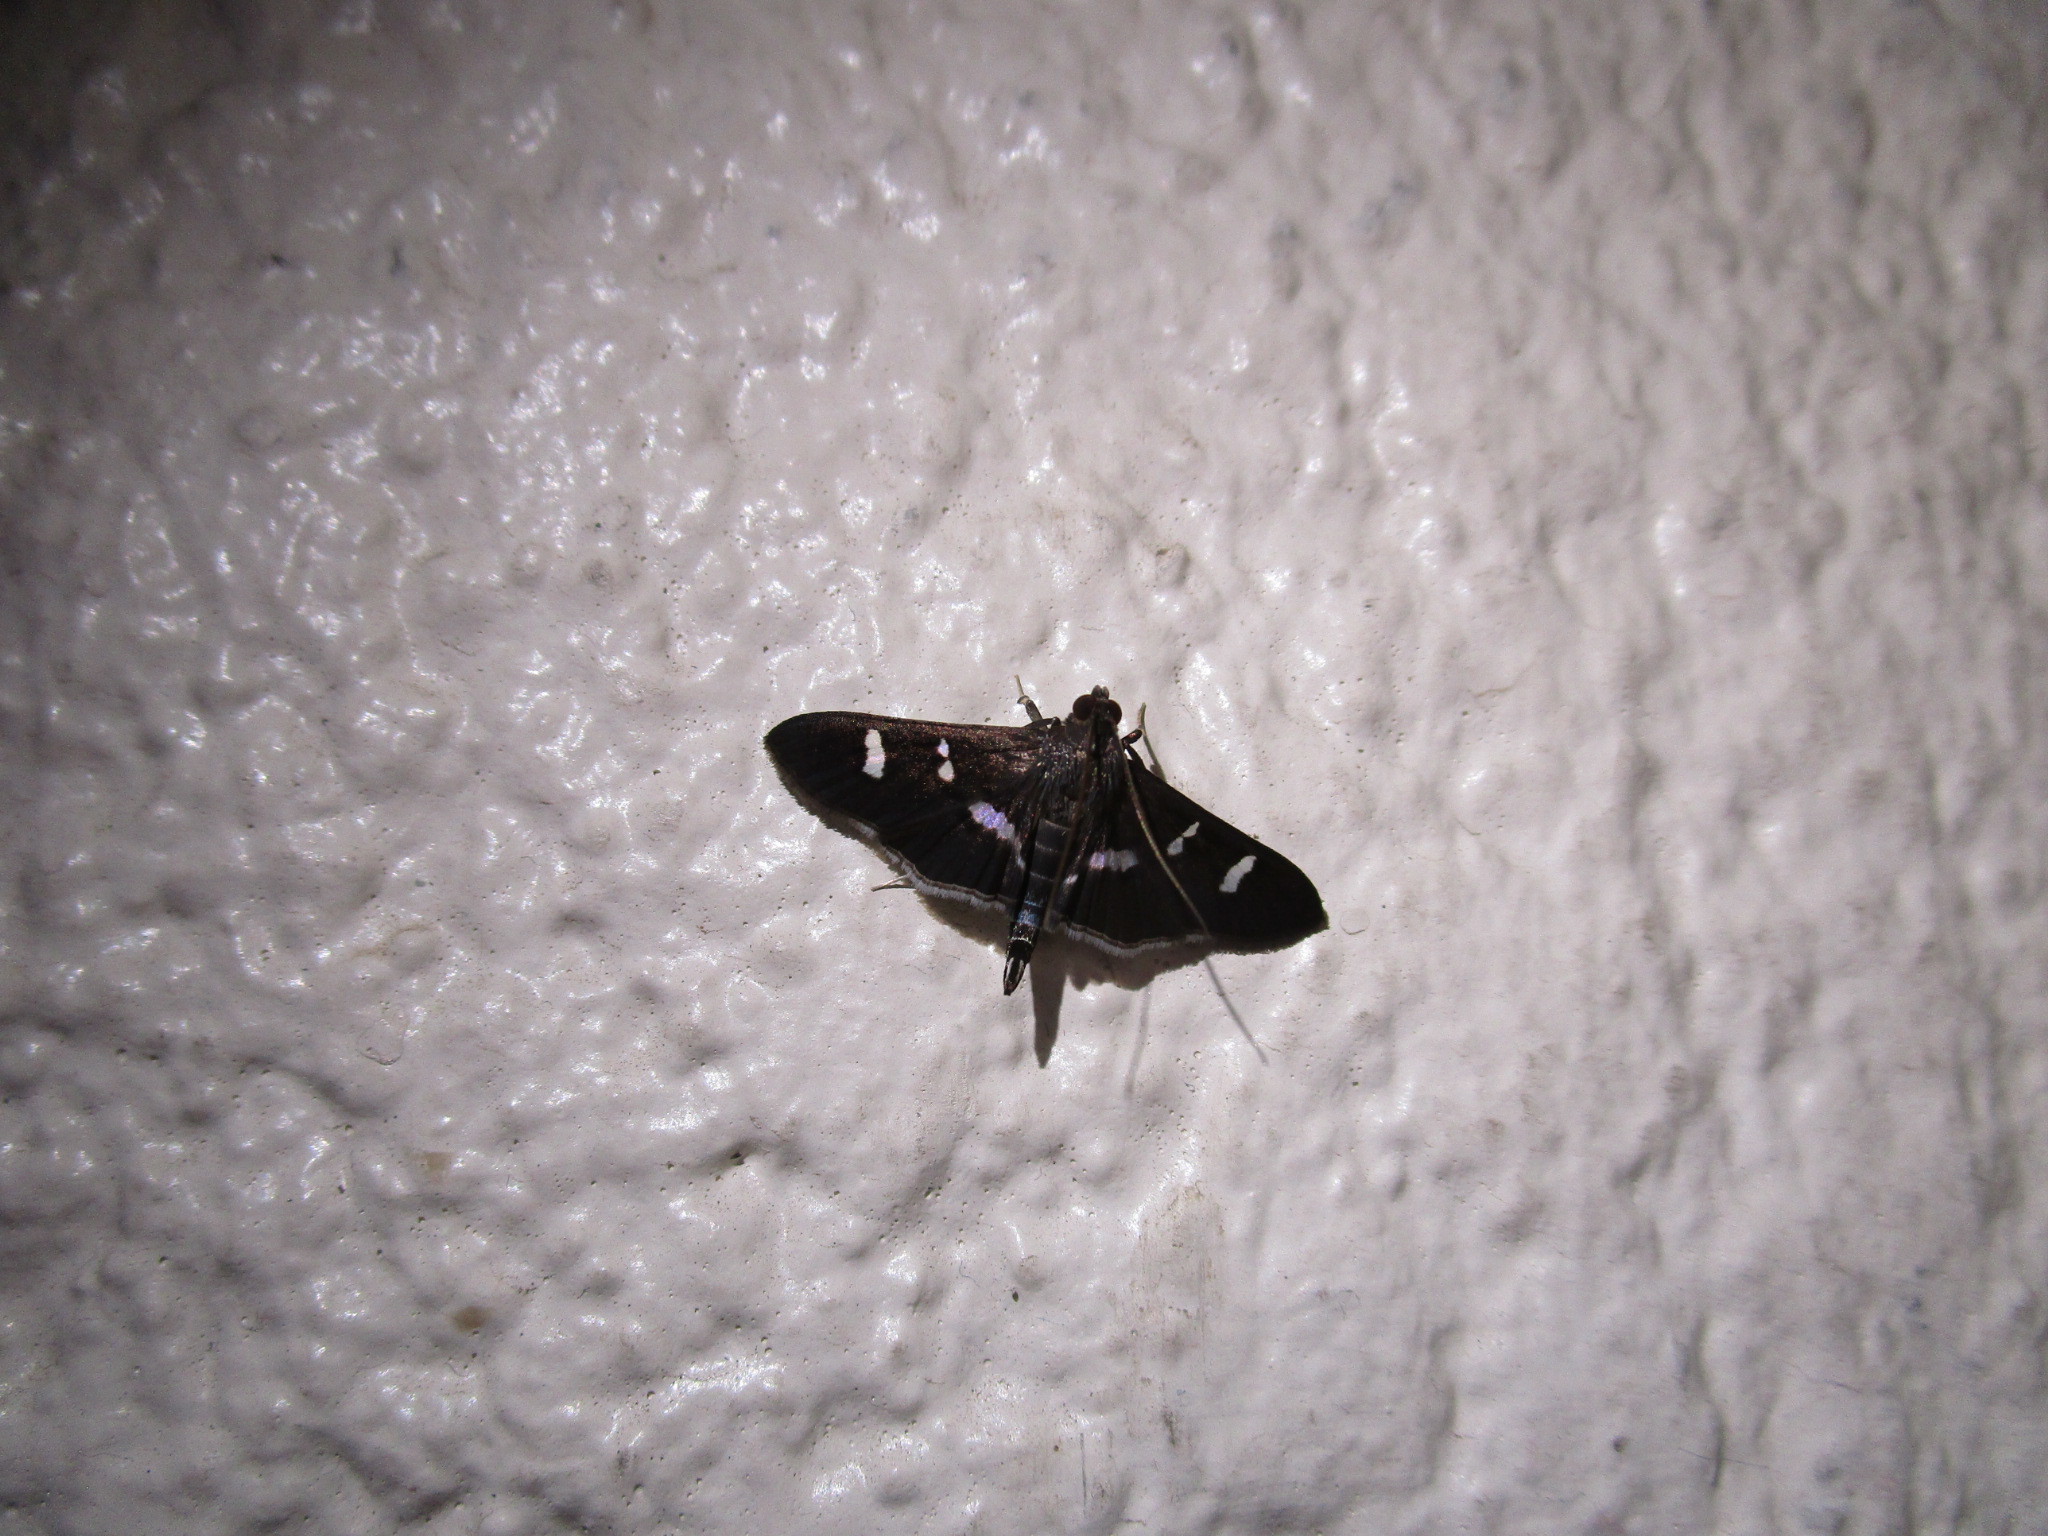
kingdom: Animalia
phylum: Arthropoda
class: Insecta
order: Lepidoptera
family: Crambidae
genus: Desmia
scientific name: Desmia ploralis
